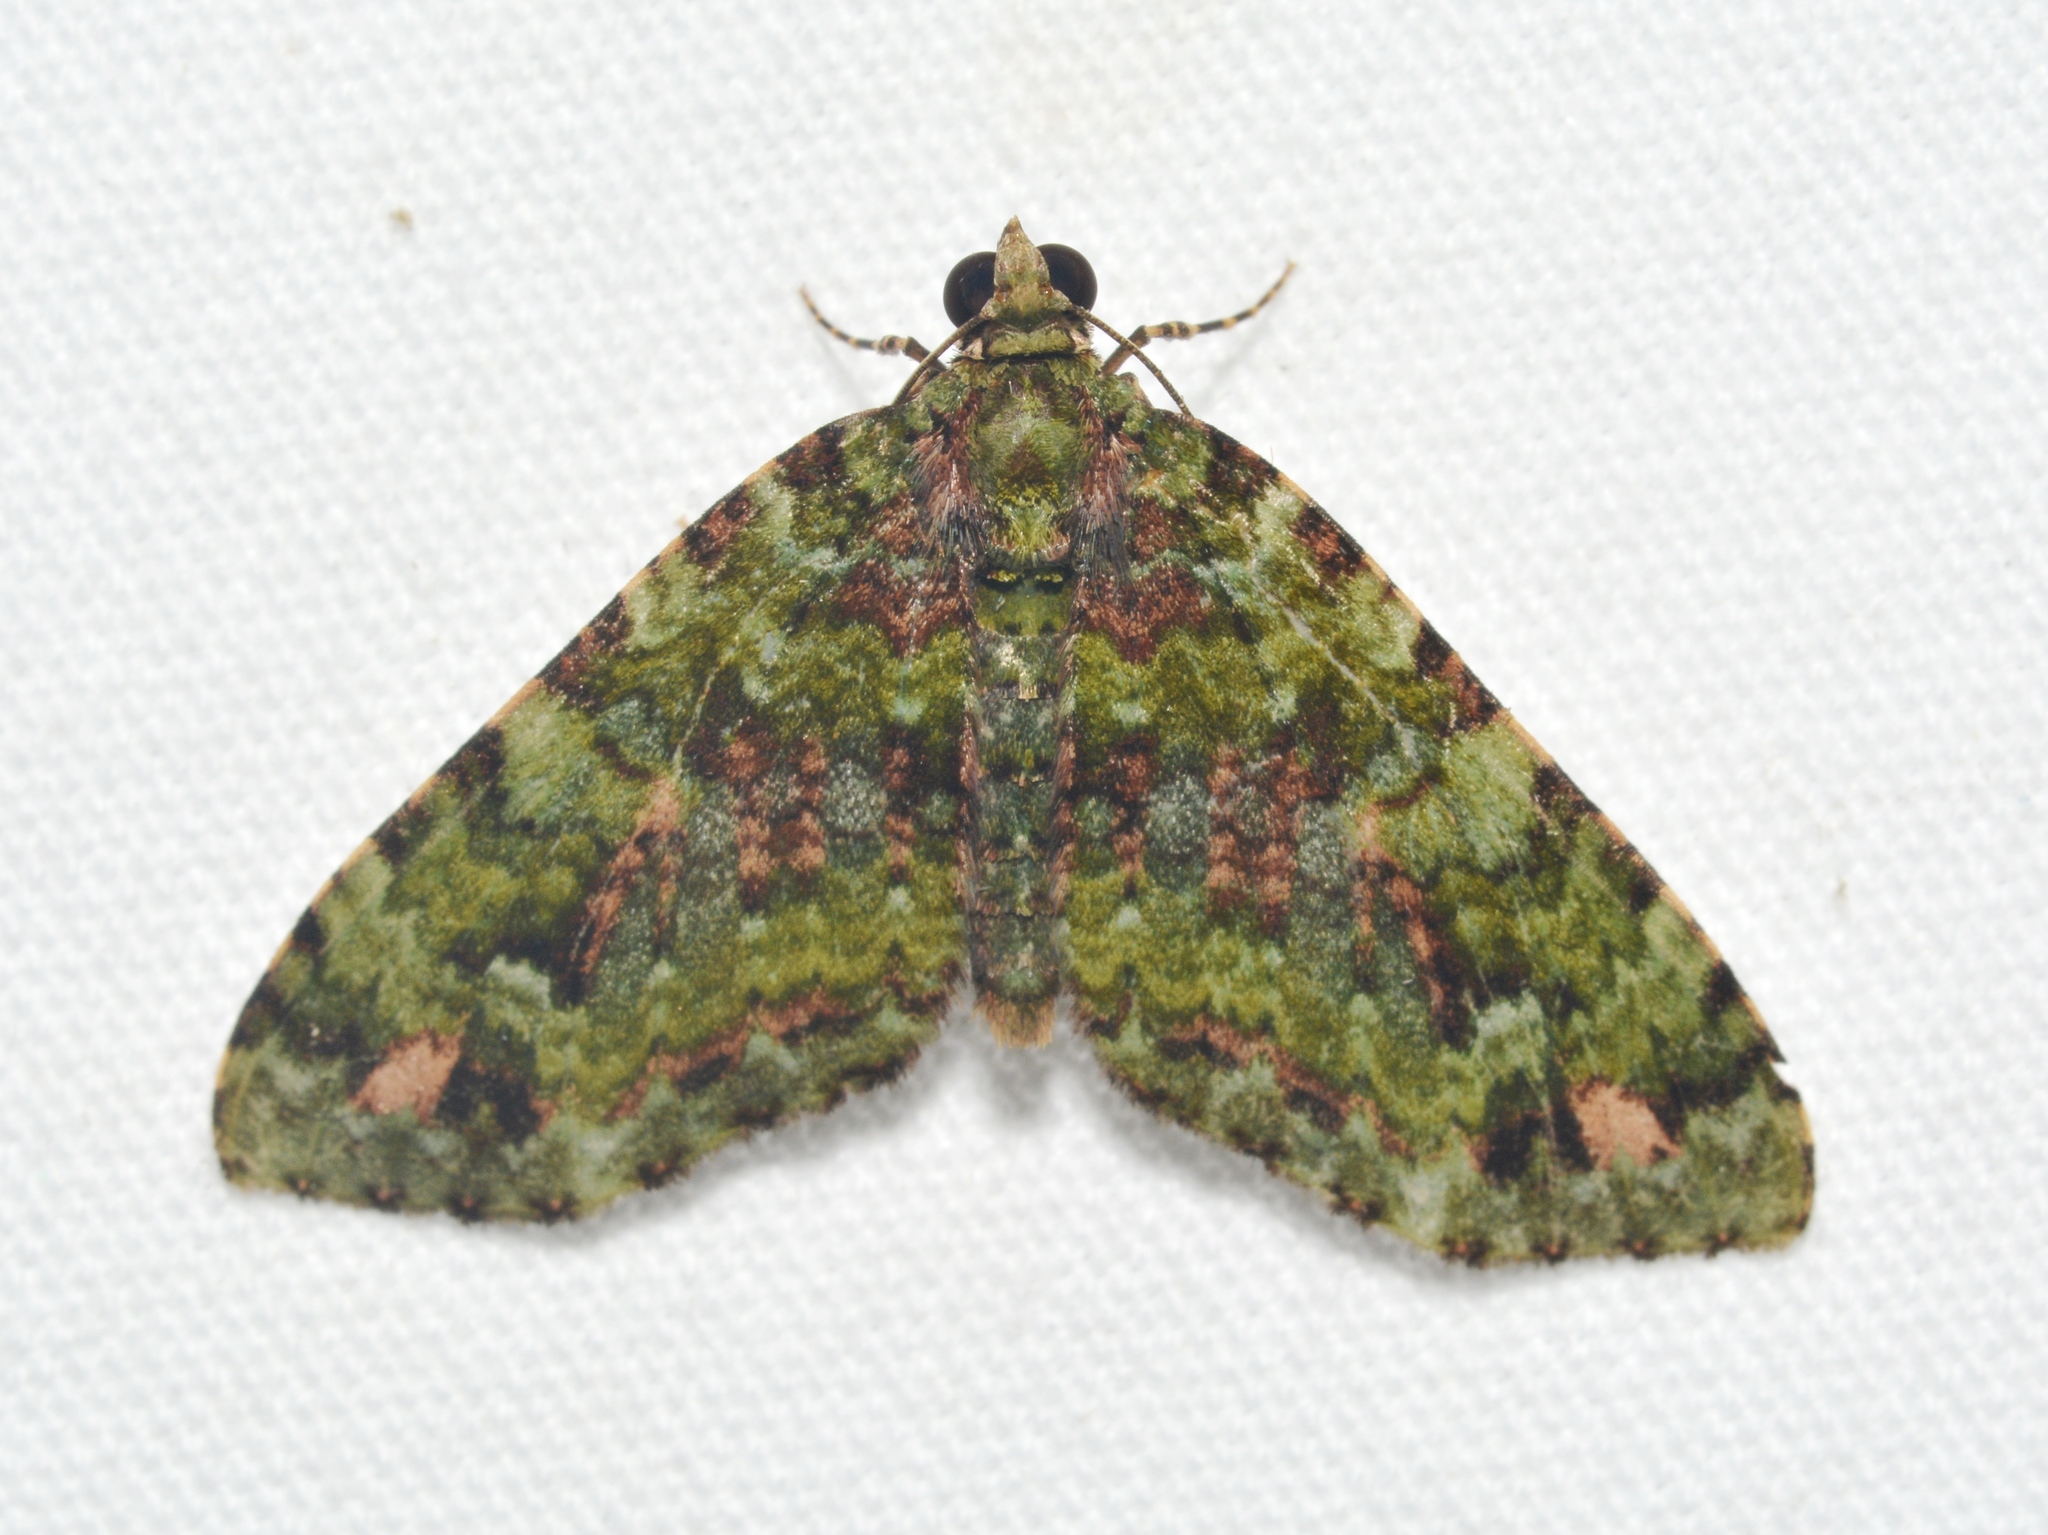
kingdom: Animalia
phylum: Arthropoda
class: Insecta
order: Lepidoptera
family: Geometridae
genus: Hammaptera
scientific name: Hammaptera probataria
